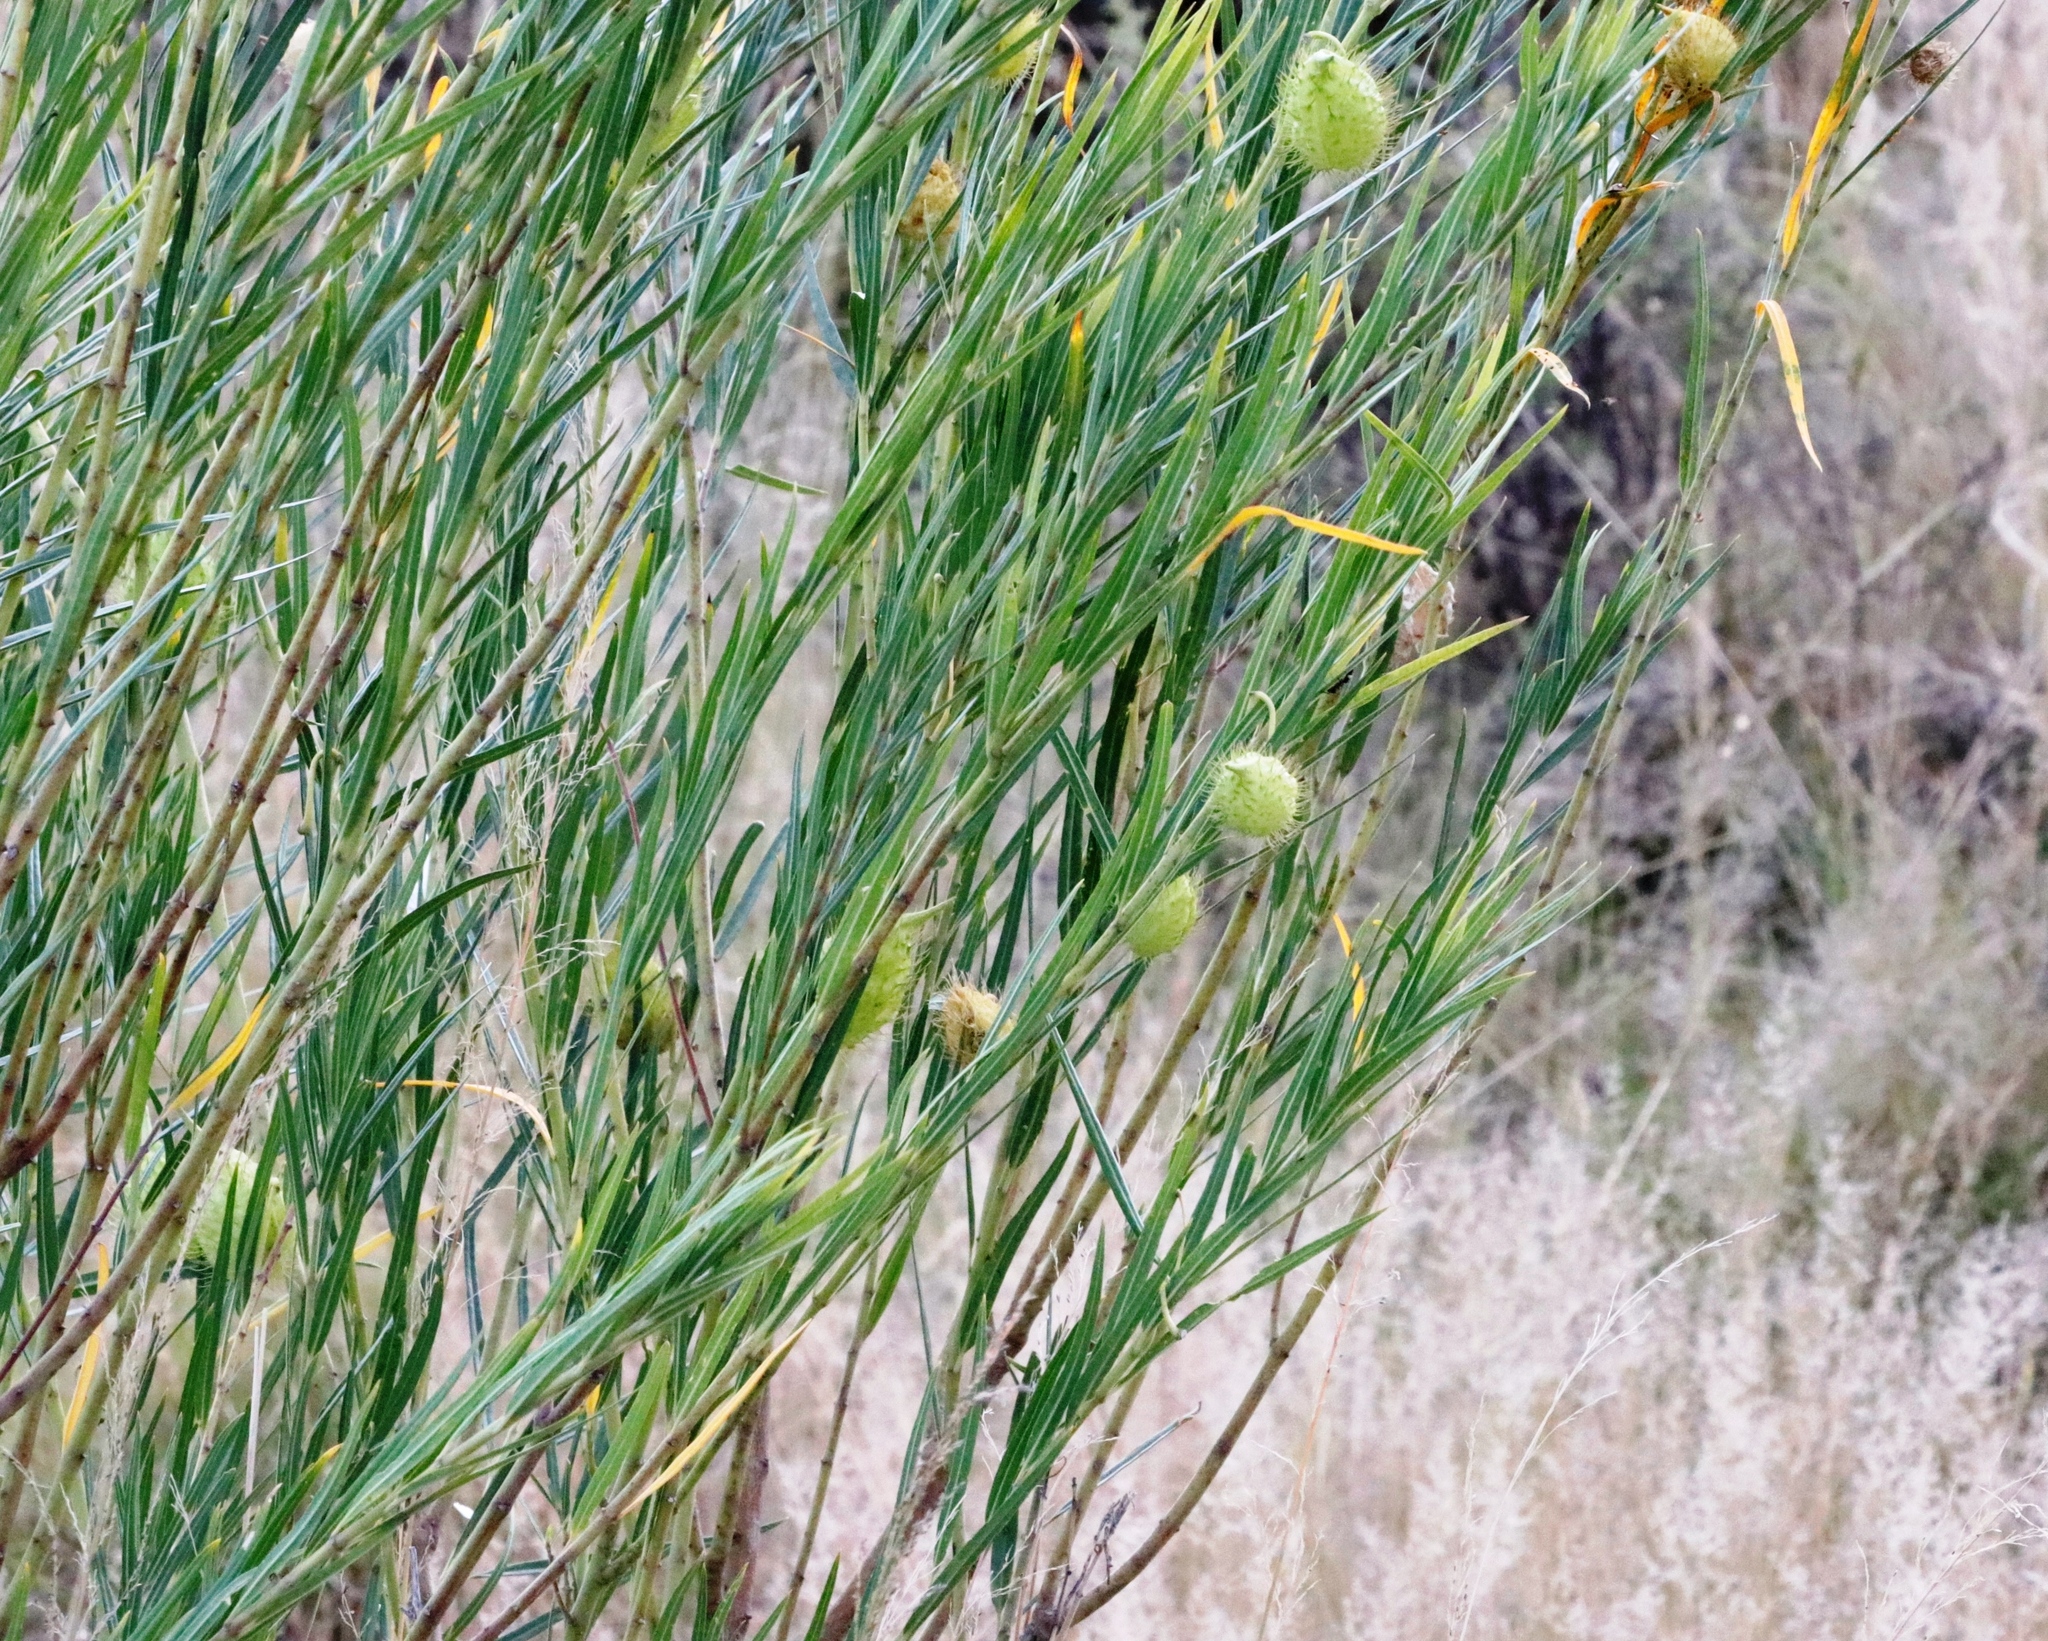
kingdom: Plantae
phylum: Tracheophyta
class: Magnoliopsida
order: Gentianales
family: Apocynaceae
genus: Gomphocarpus
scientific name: Gomphocarpus fruticosus
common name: Milkweed
